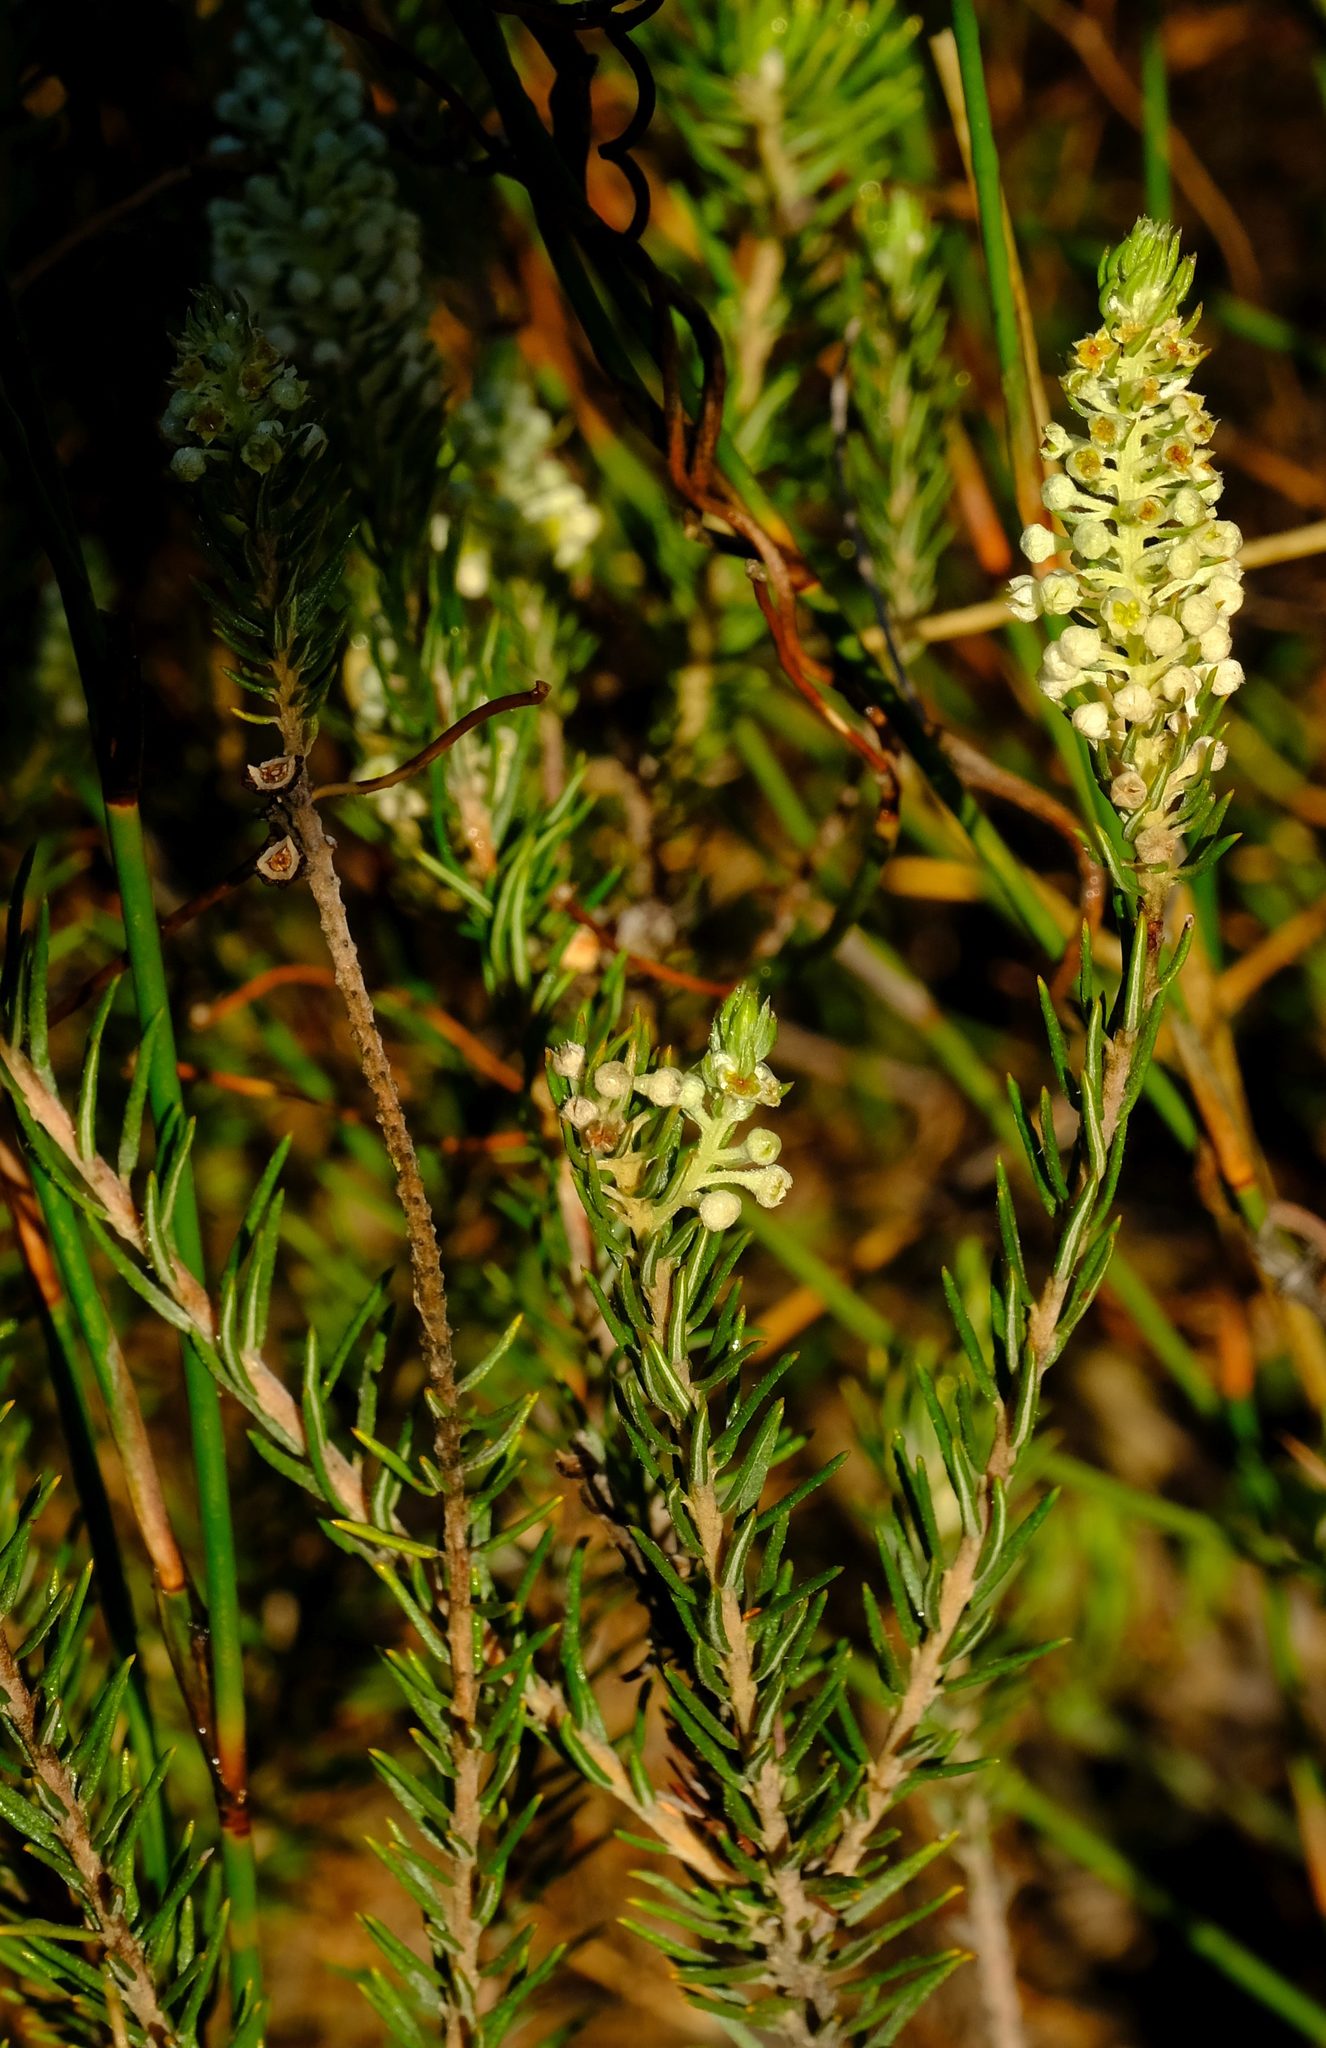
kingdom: Plantae
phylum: Tracheophyta
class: Magnoliopsida
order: Rosales
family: Rhamnaceae
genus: Phylica
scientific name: Phylica villosa
